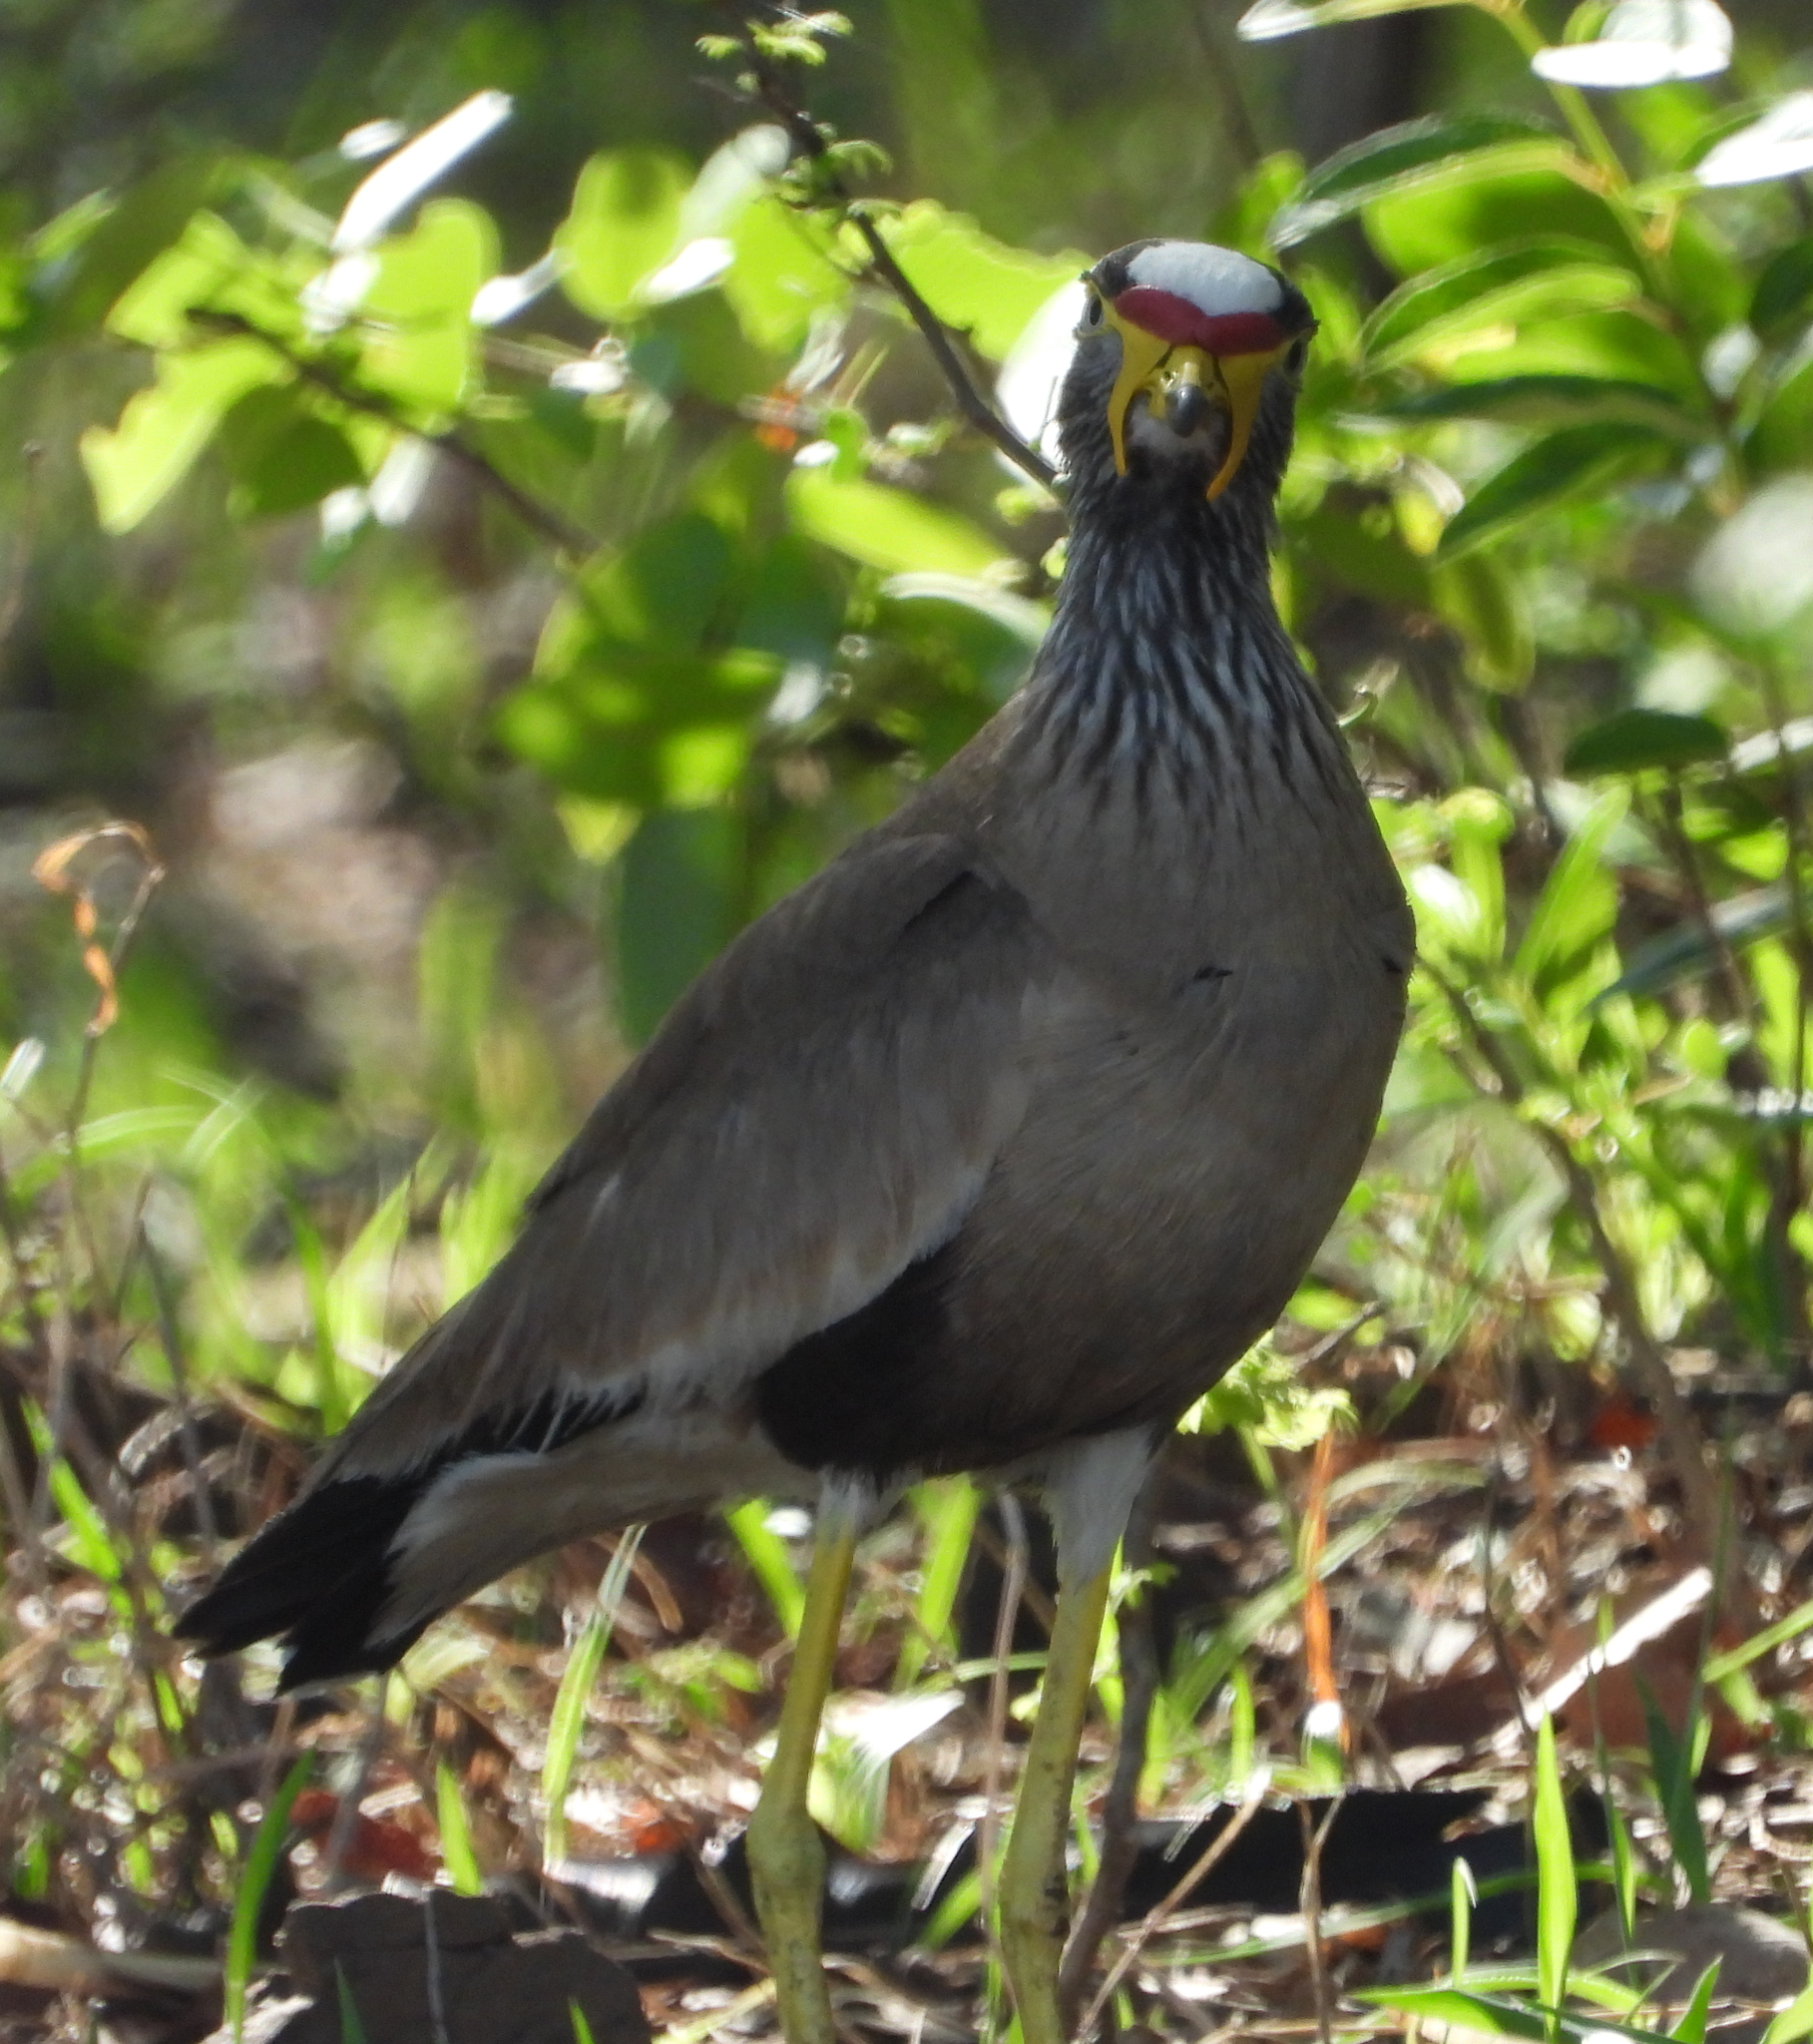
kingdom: Animalia
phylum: Chordata
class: Aves
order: Charadriiformes
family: Charadriidae
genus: Vanellus
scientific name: Vanellus senegallus
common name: African wattled lapwing
